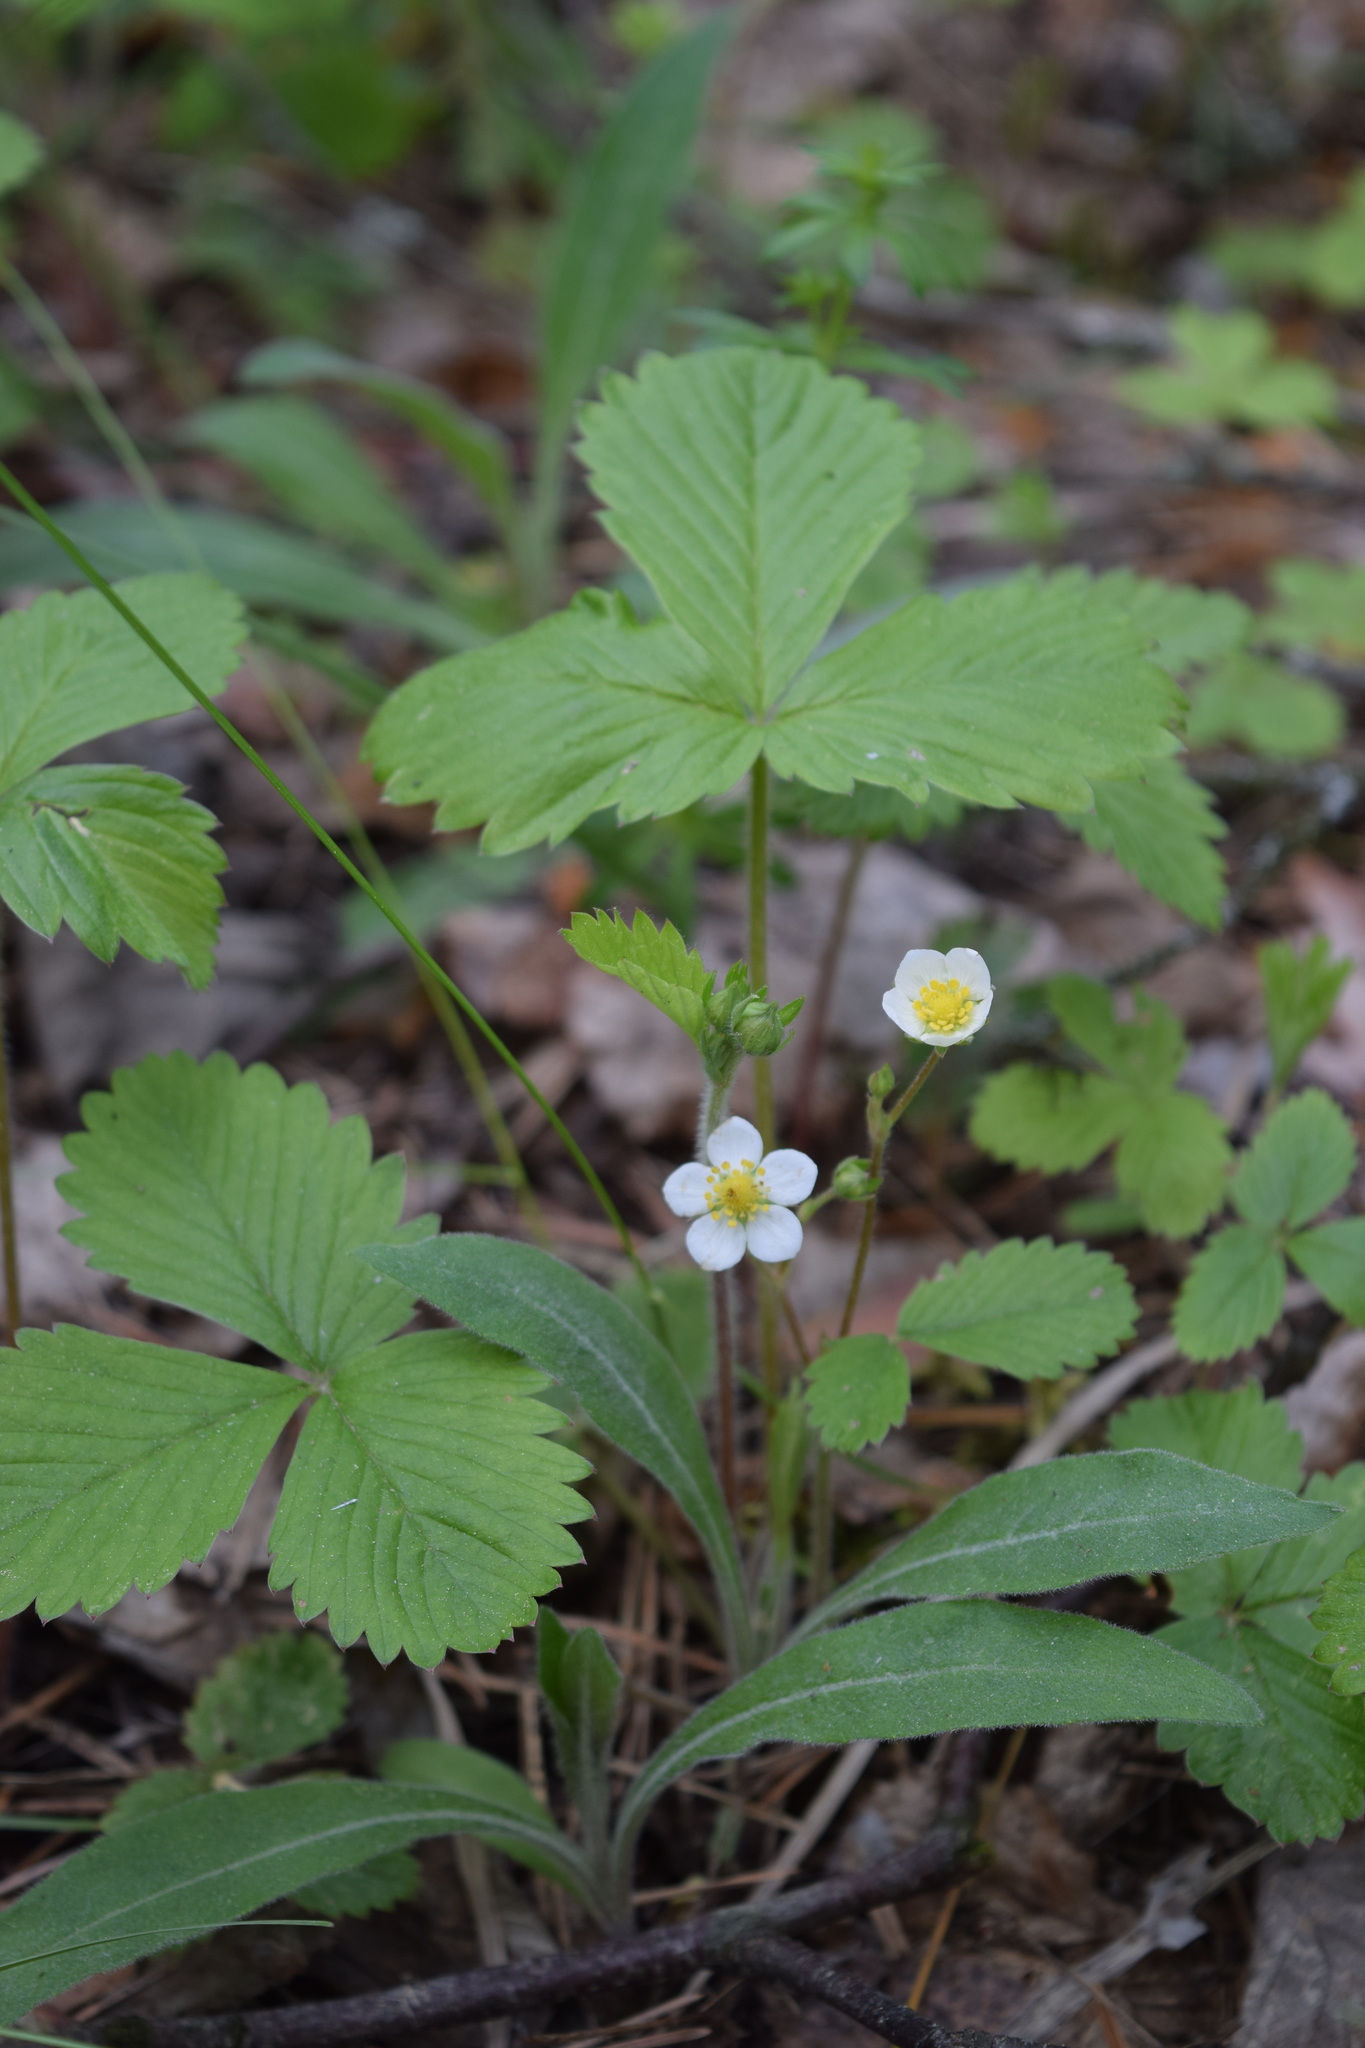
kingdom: Plantae
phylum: Tracheophyta
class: Magnoliopsida
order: Rosales
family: Rosaceae
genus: Fragaria
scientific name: Fragaria vesca
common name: Wild strawberry
